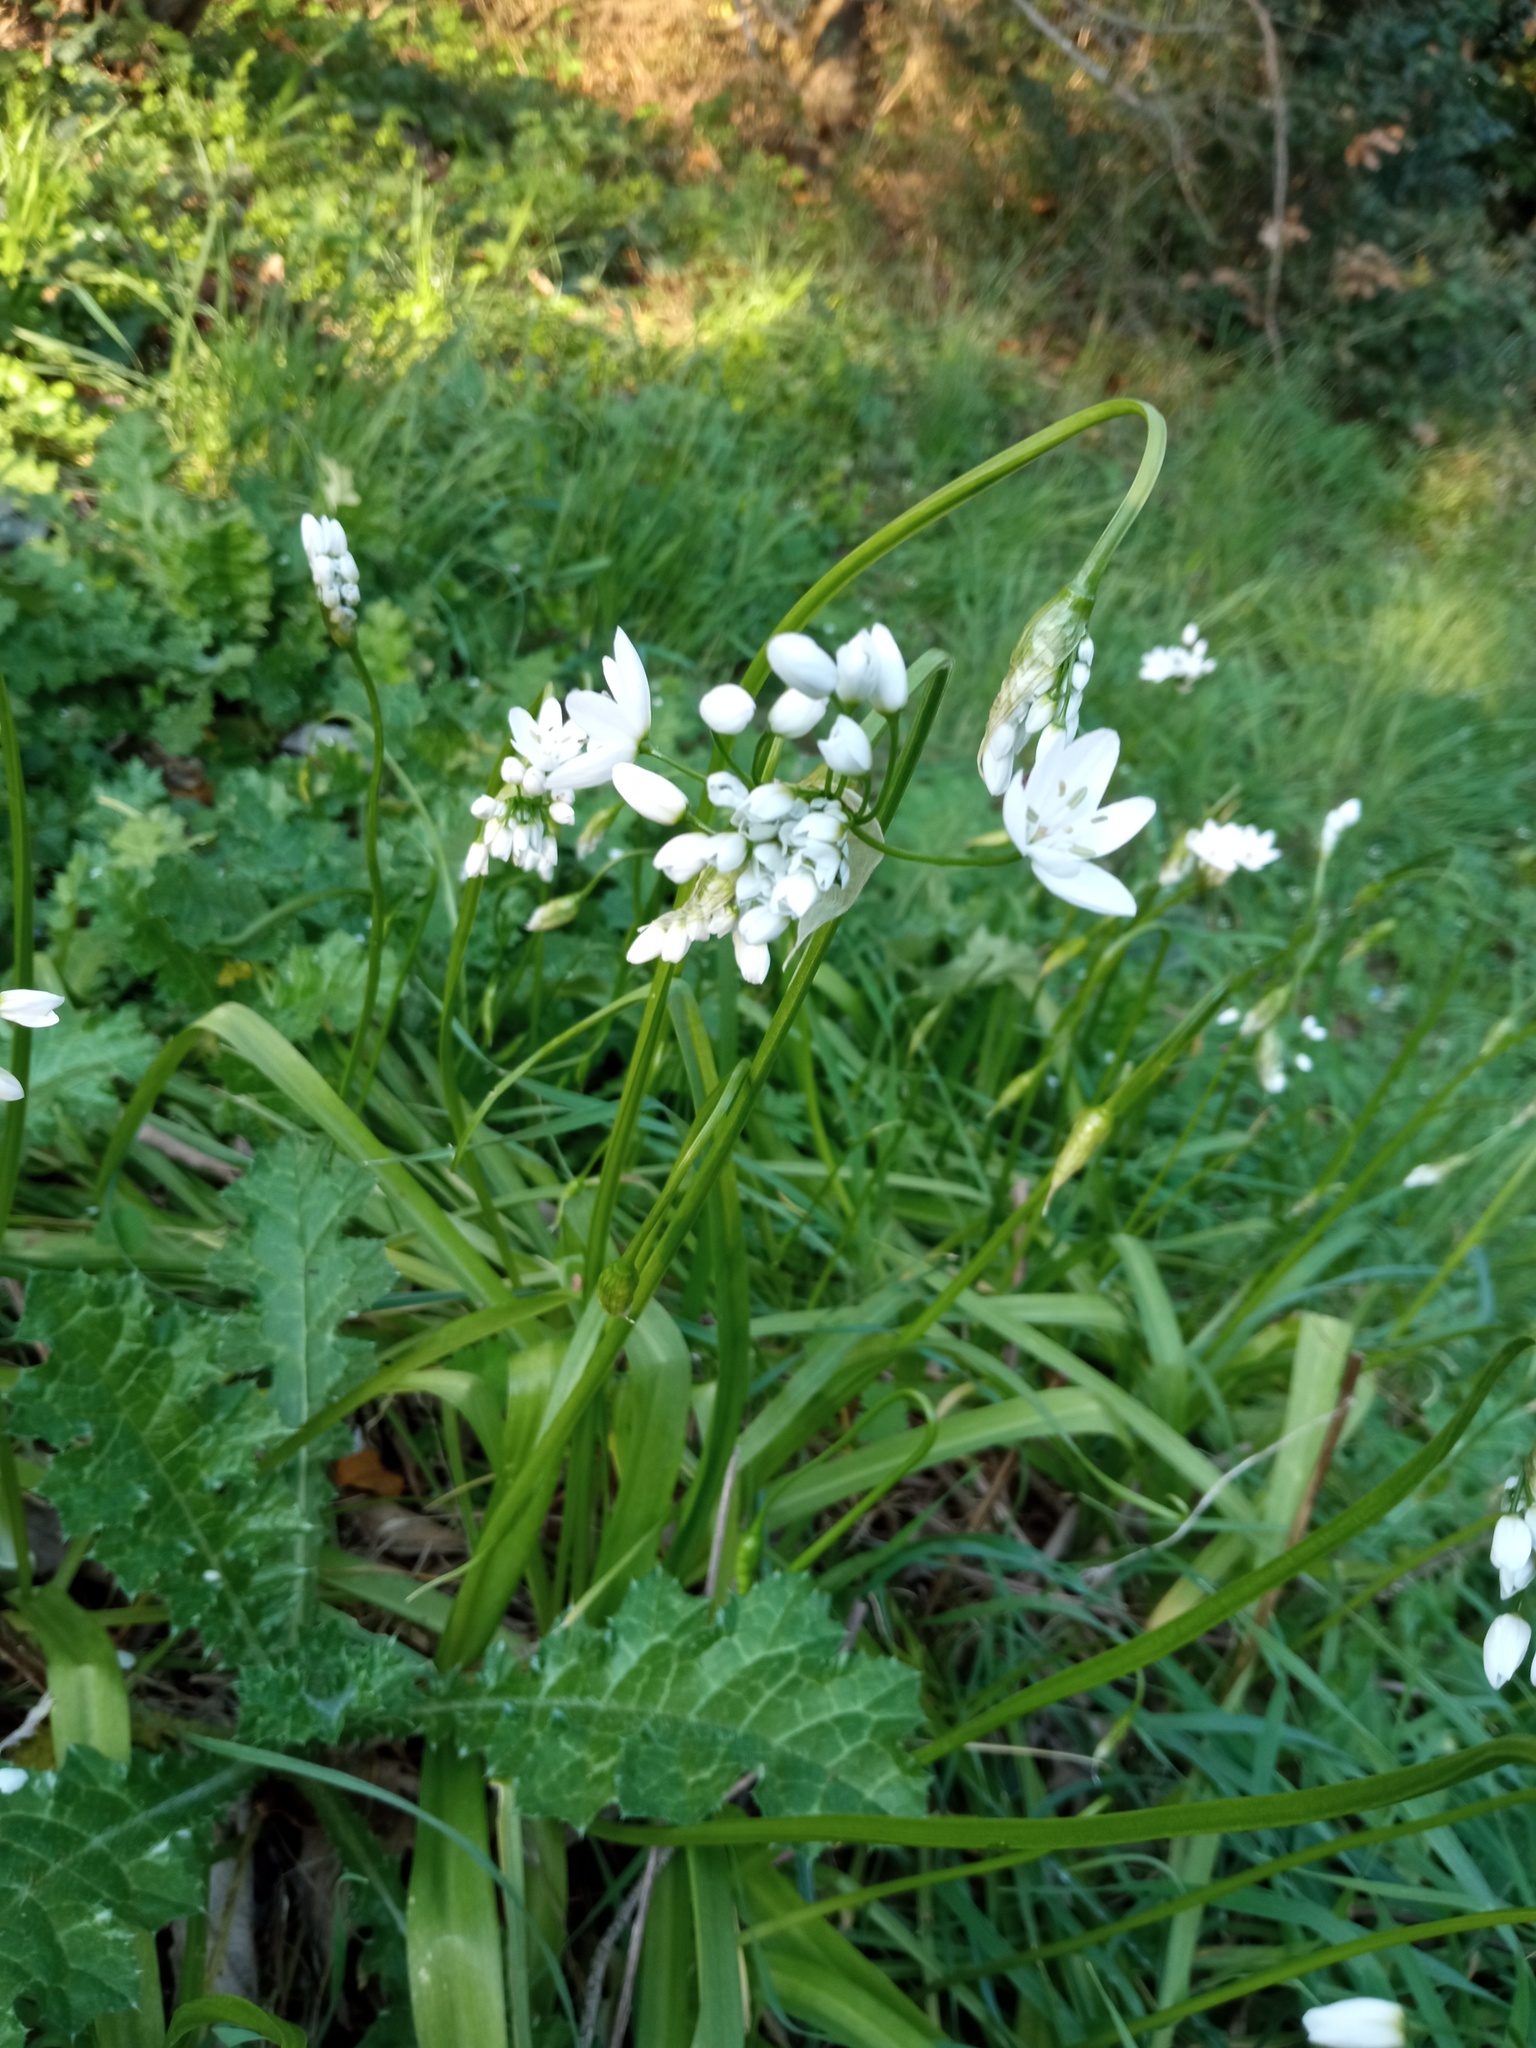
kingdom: Plantae
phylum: Tracheophyta
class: Liliopsida
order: Asparagales
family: Amaryllidaceae
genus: Allium
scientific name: Allium neapolitanum
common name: Neapolitan garlic
